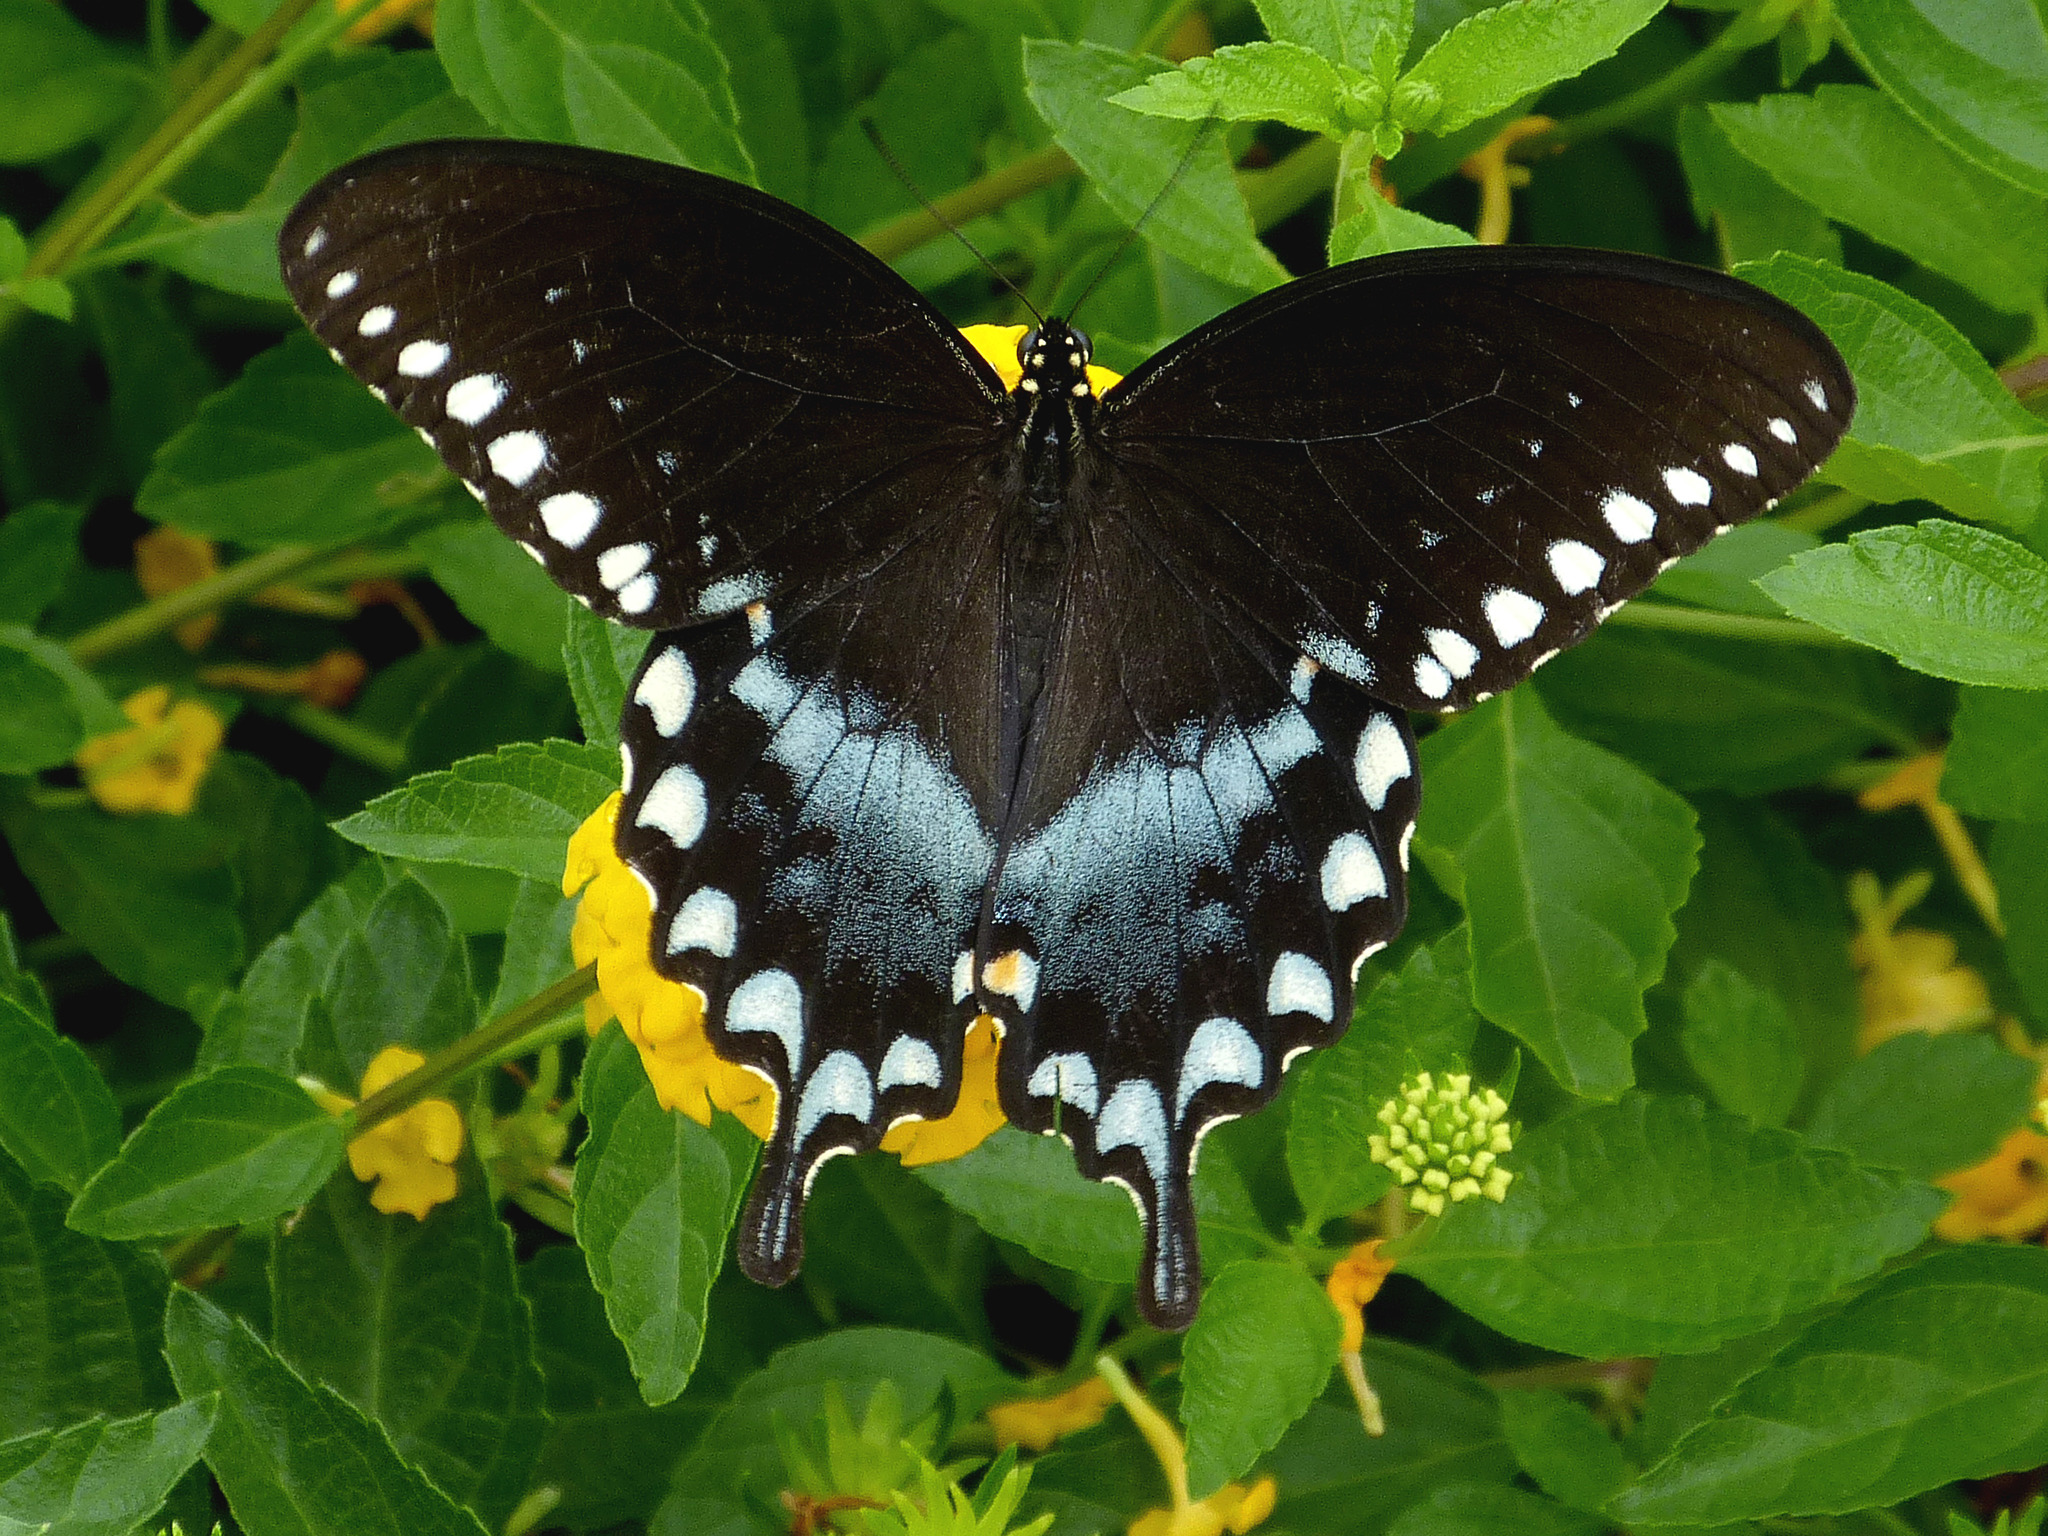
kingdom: Animalia
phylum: Arthropoda
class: Insecta
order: Lepidoptera
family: Papilionidae
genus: Papilio
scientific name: Papilio troilus
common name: Spicebush swallowtail
